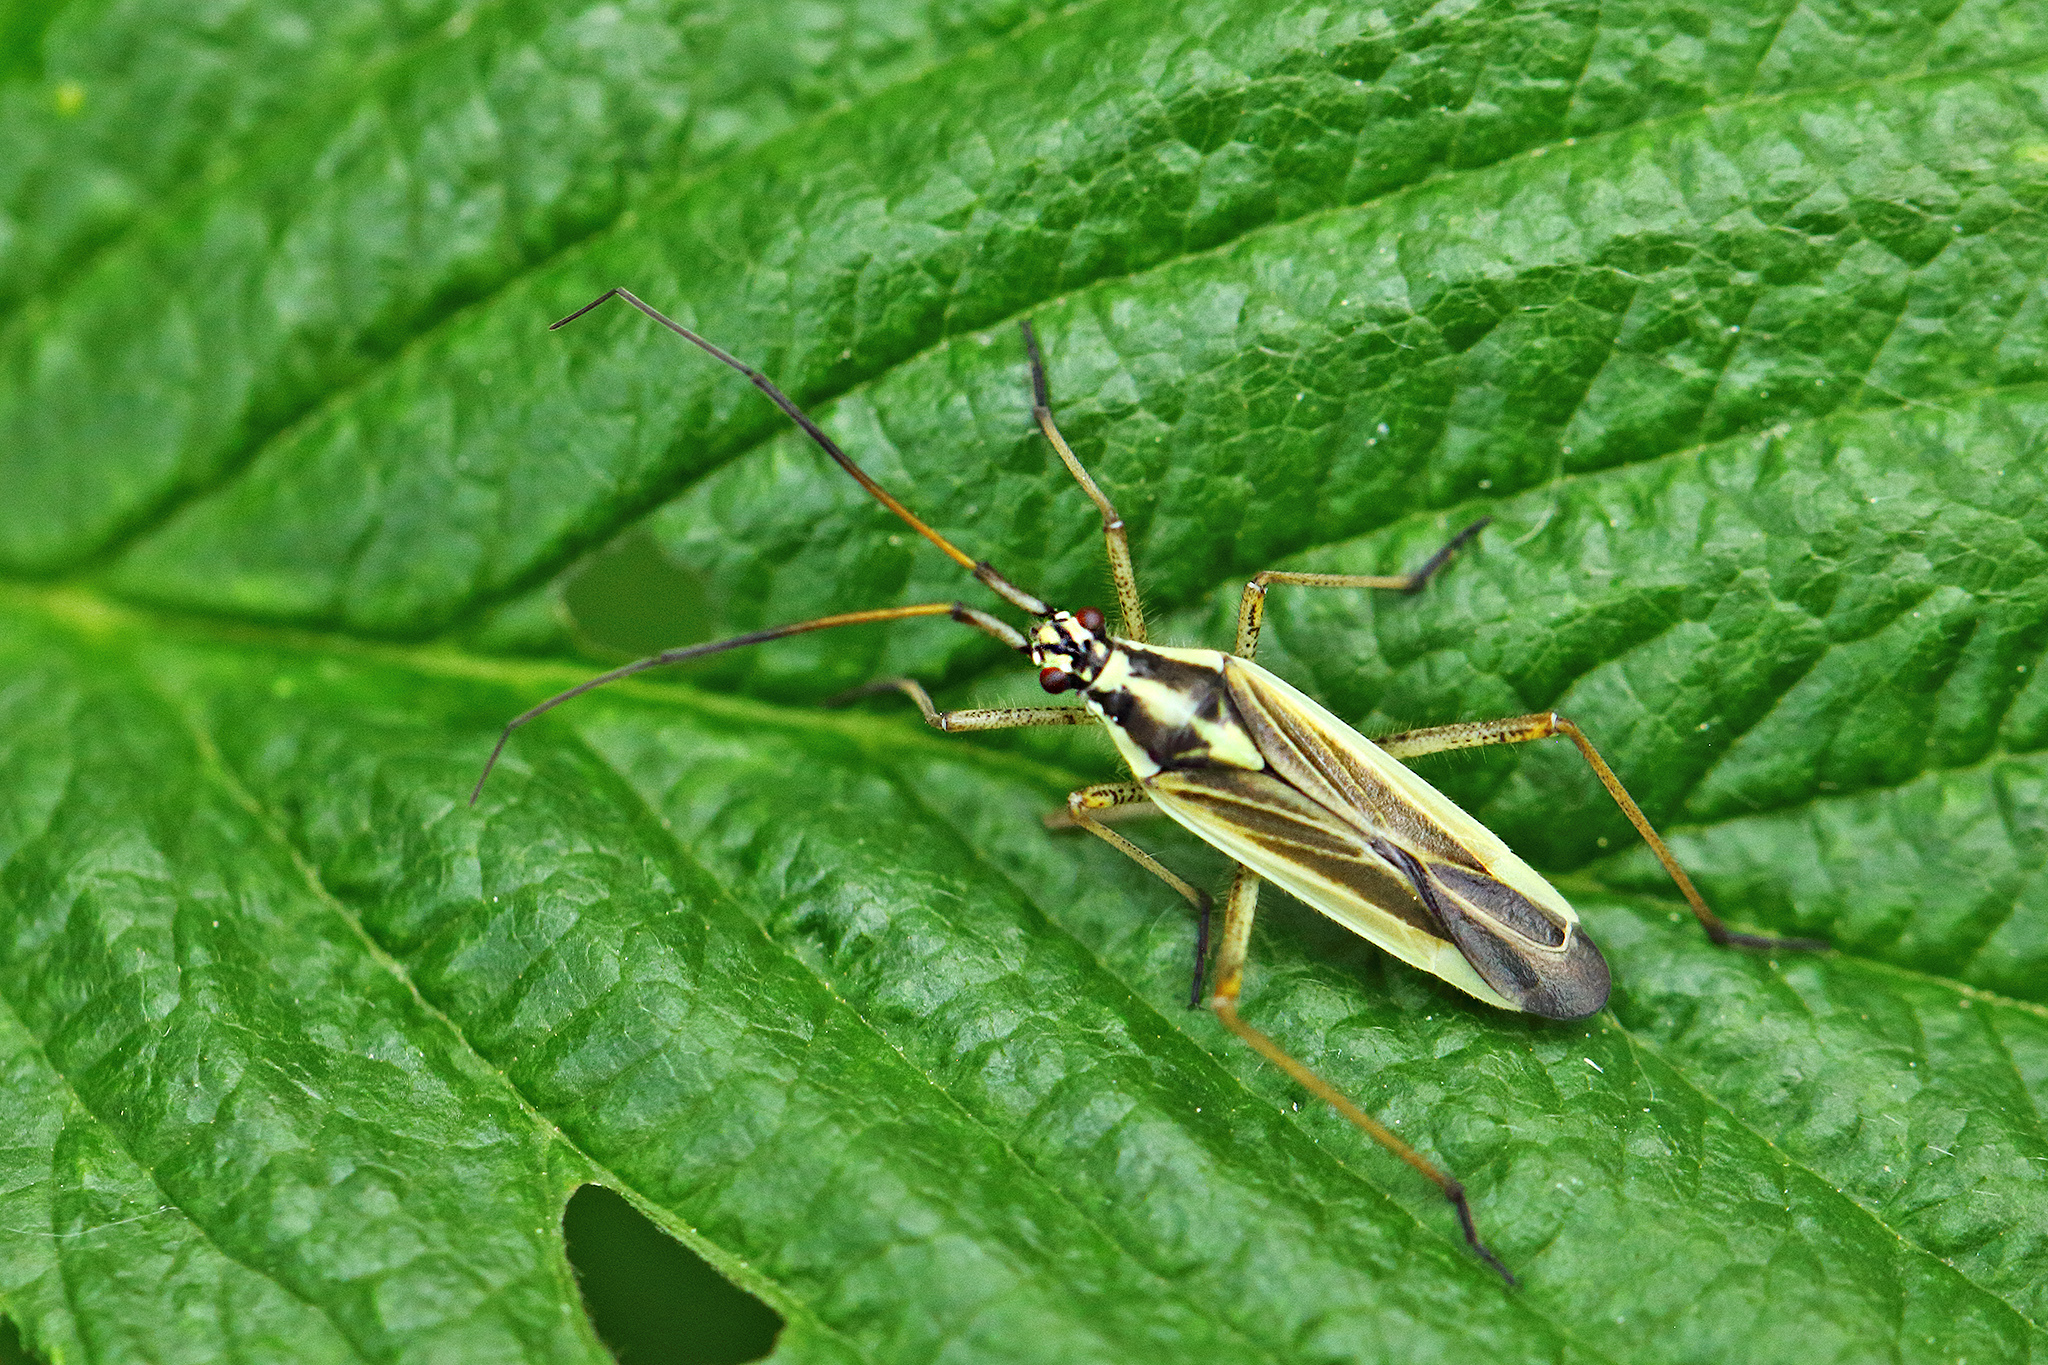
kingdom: Animalia
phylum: Arthropoda
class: Insecta
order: Hemiptera
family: Miridae
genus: Leptopterna
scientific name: Leptopterna dolabrata
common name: Meadow plant bug
